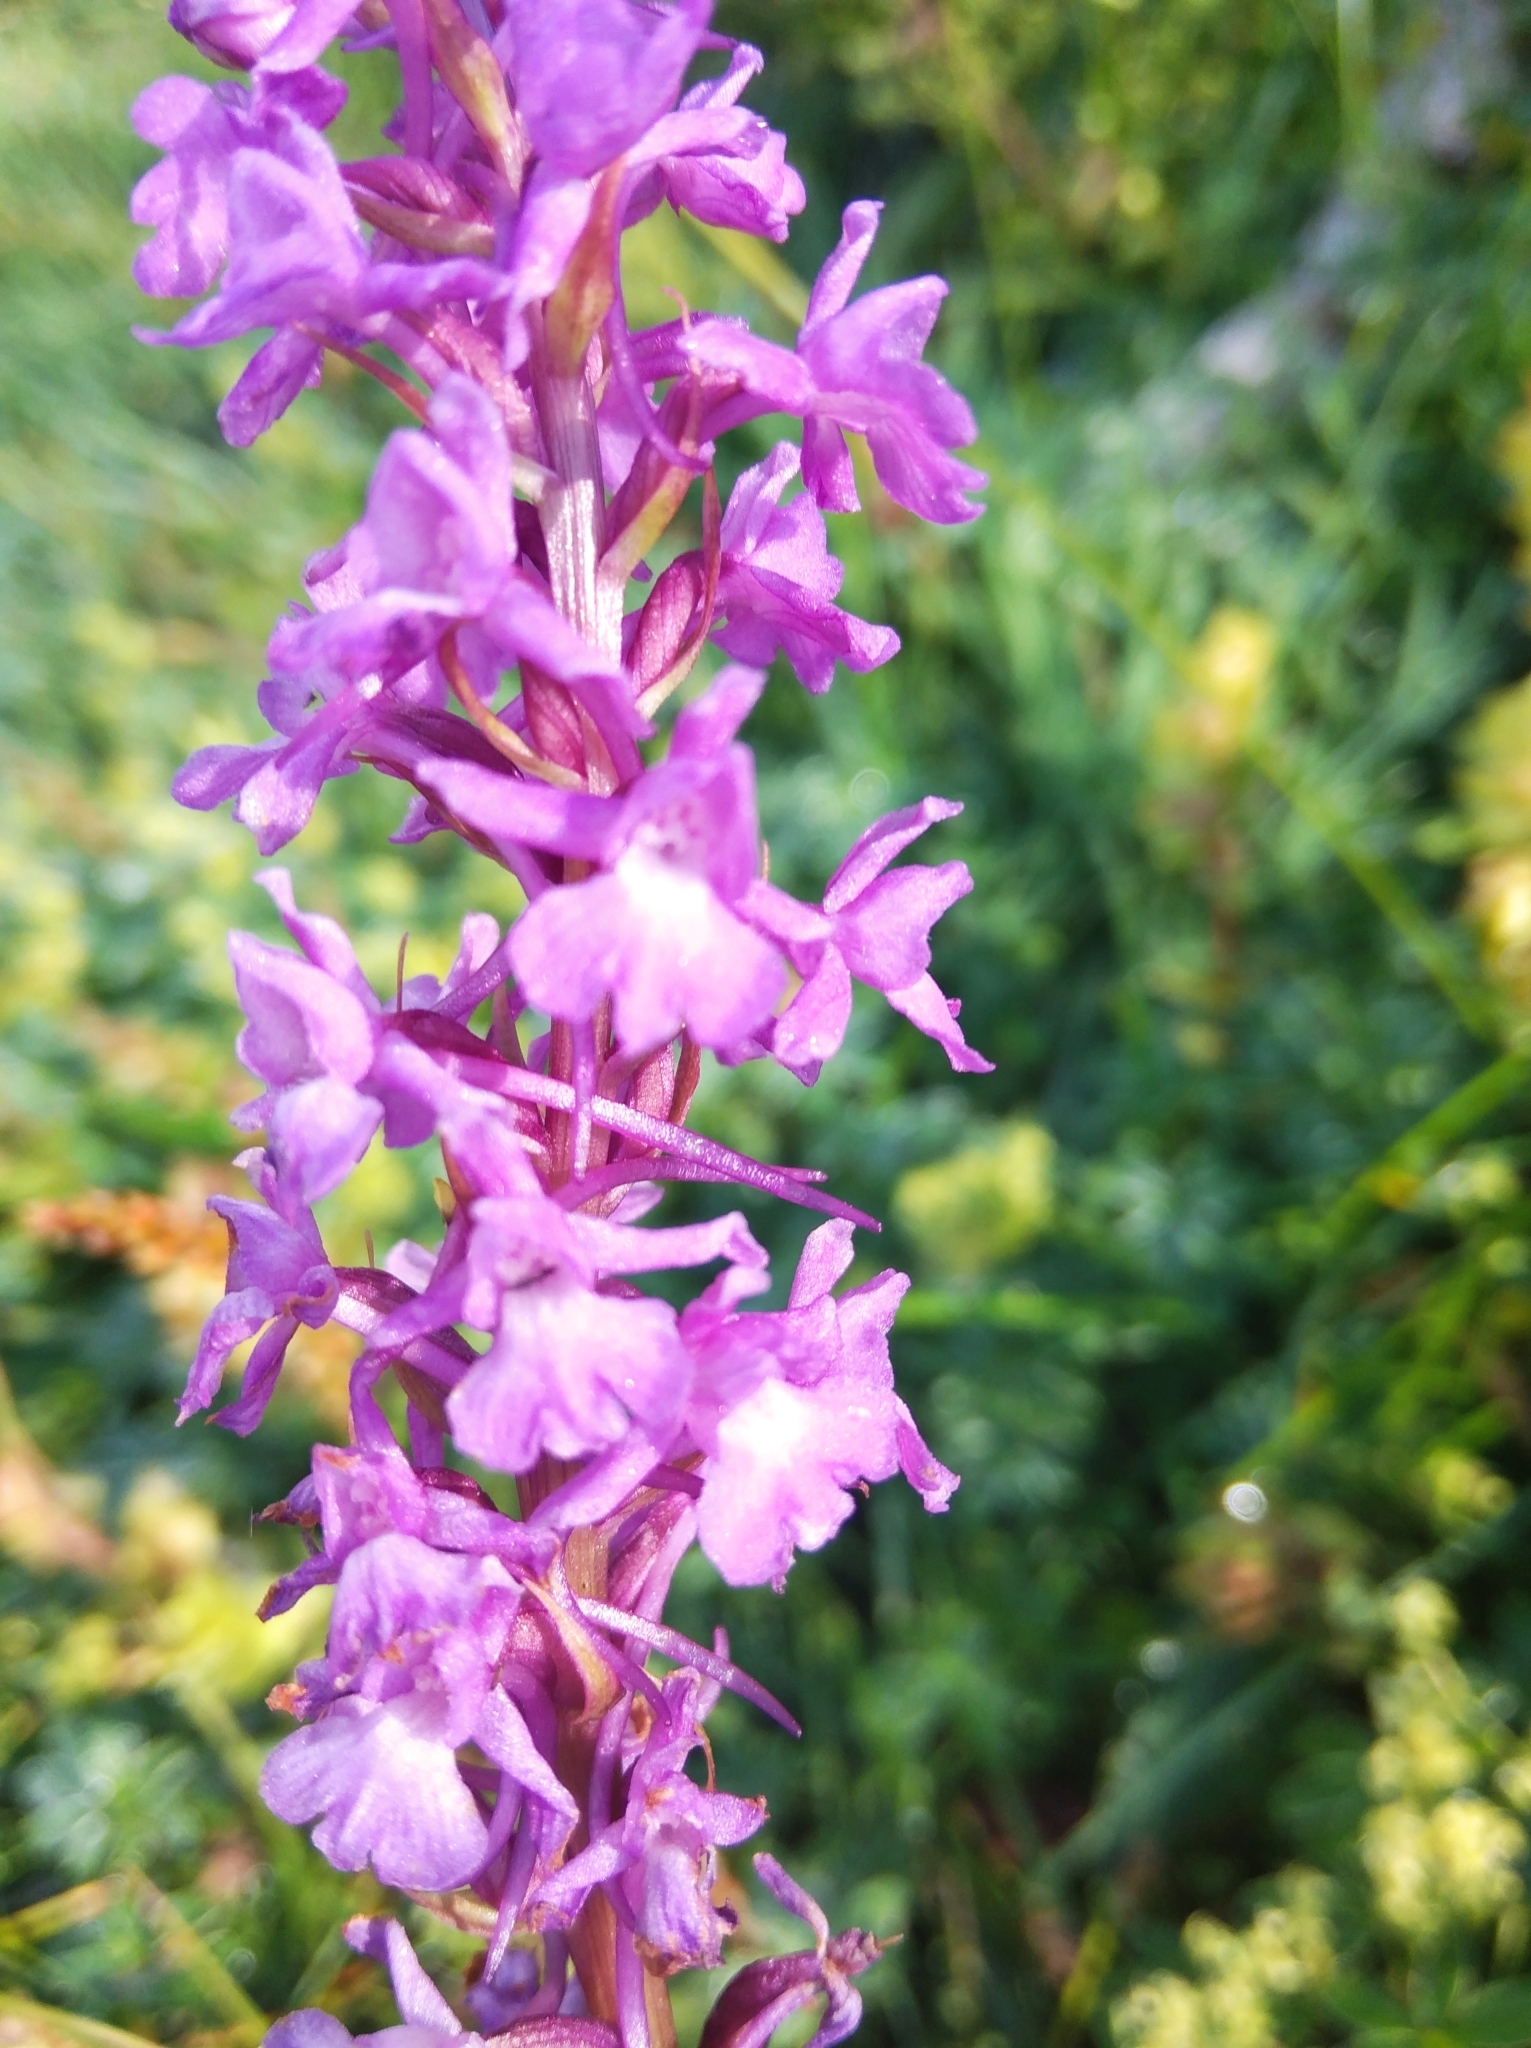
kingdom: Plantae
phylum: Tracheophyta
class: Liliopsida
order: Asparagales
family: Orchidaceae
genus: Gymnadenia
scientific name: Gymnadenia conopsea
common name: Fragrant orchid
